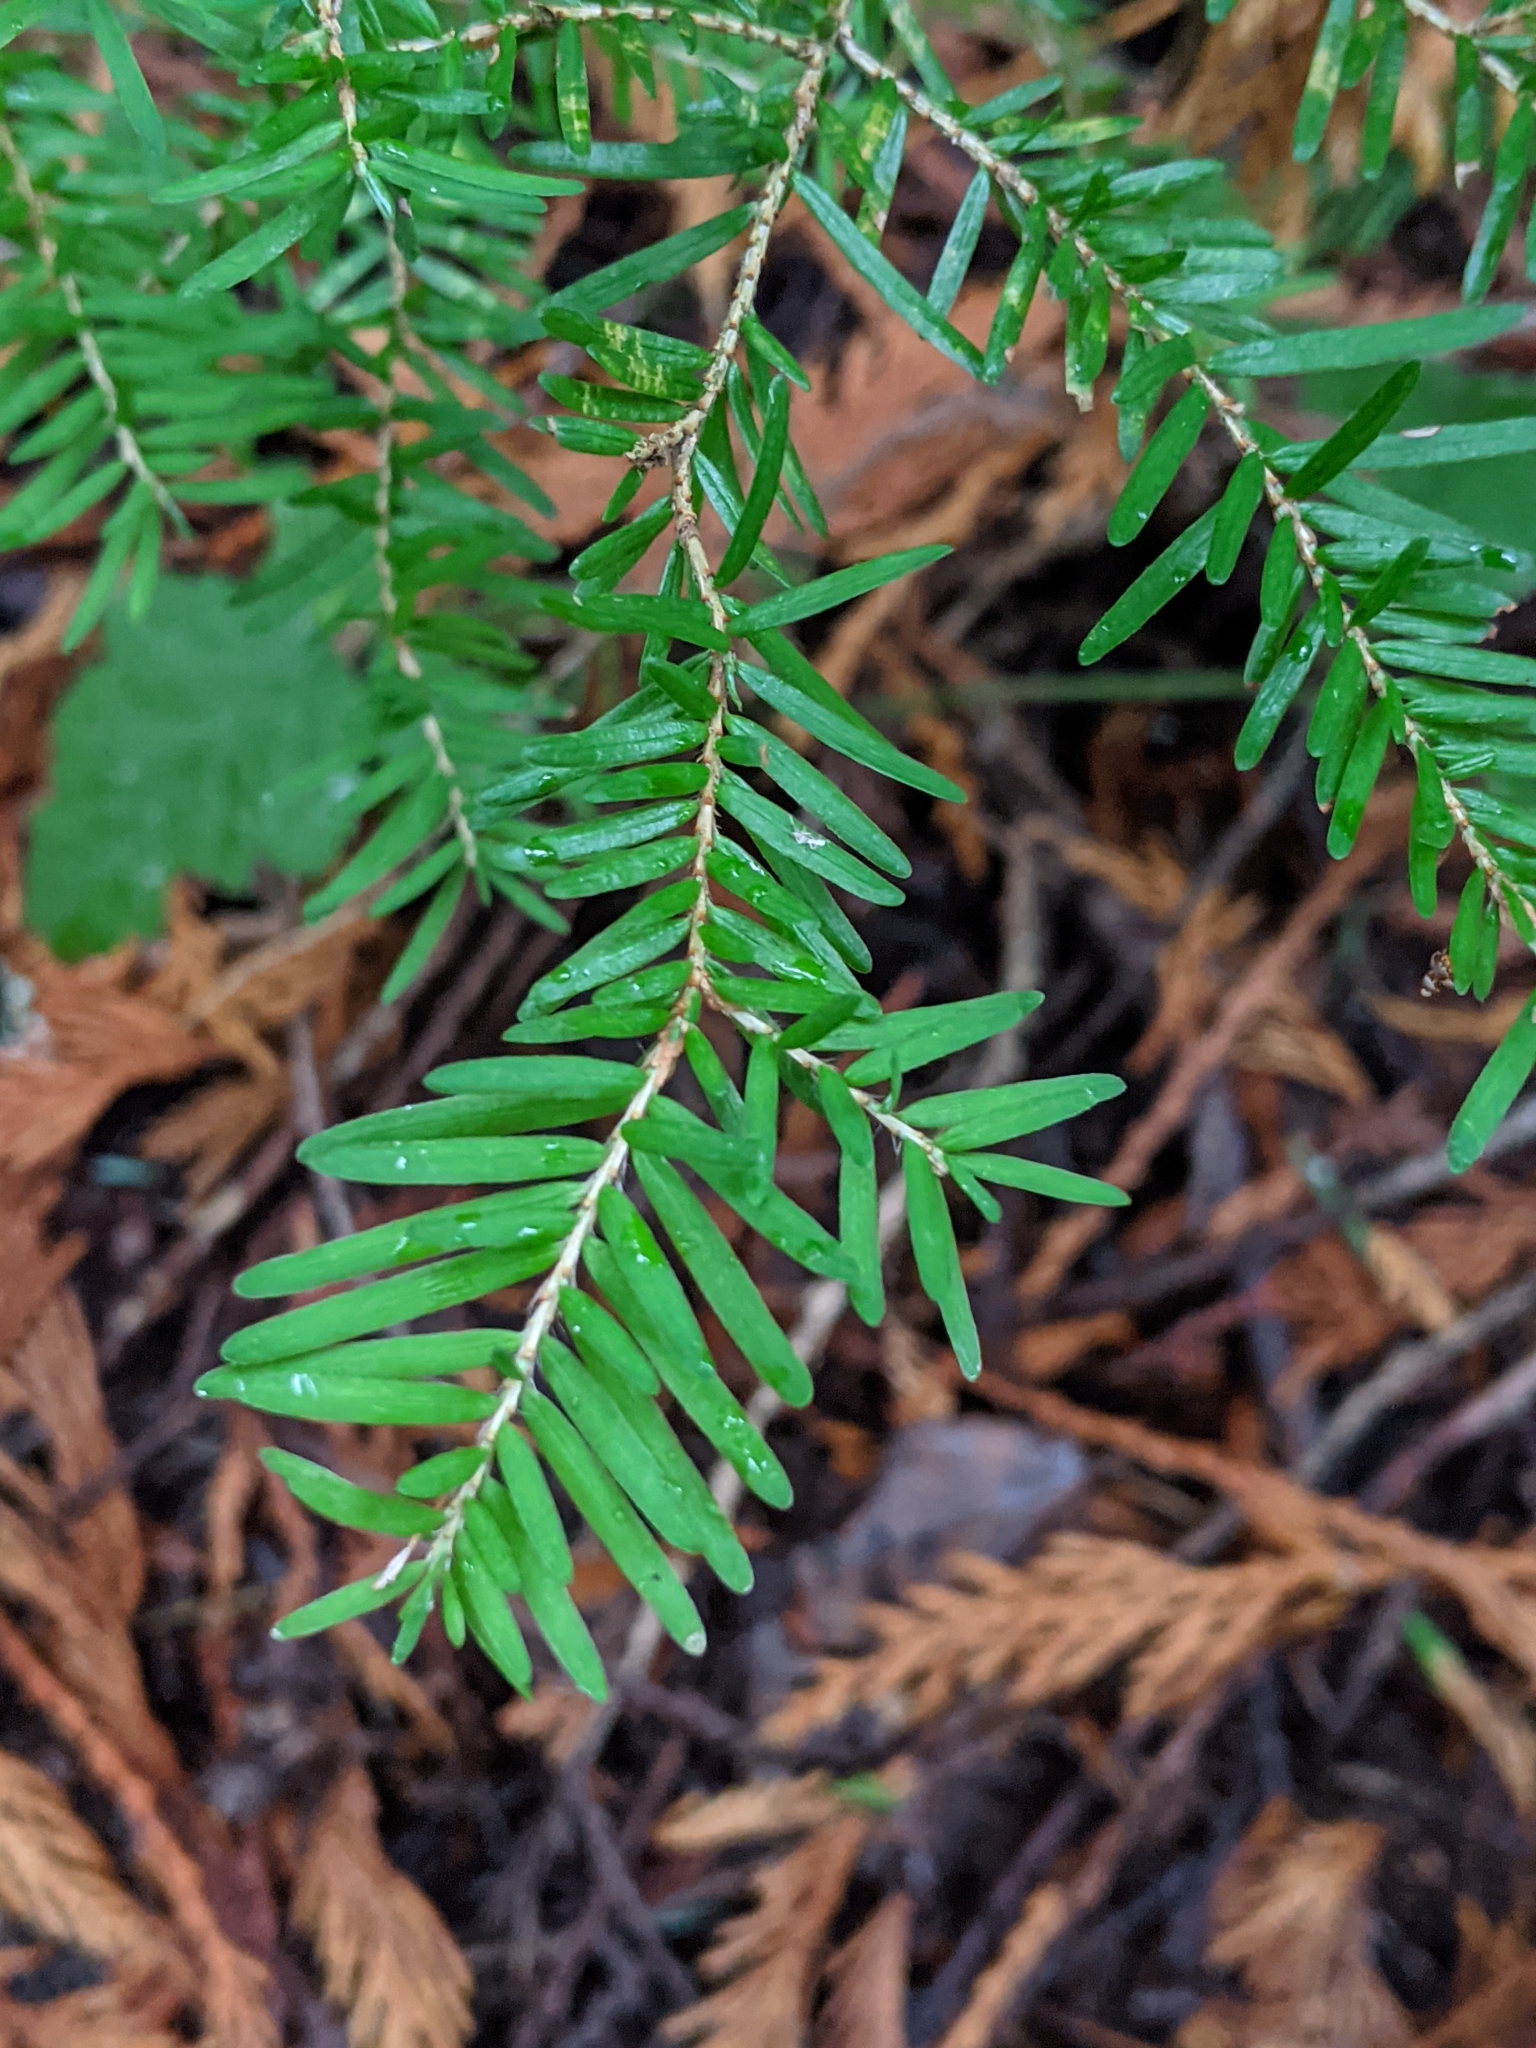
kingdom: Plantae
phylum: Tracheophyta
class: Pinopsida
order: Pinales
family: Pinaceae
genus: Tsuga
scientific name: Tsuga heterophylla
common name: Western hemlock
